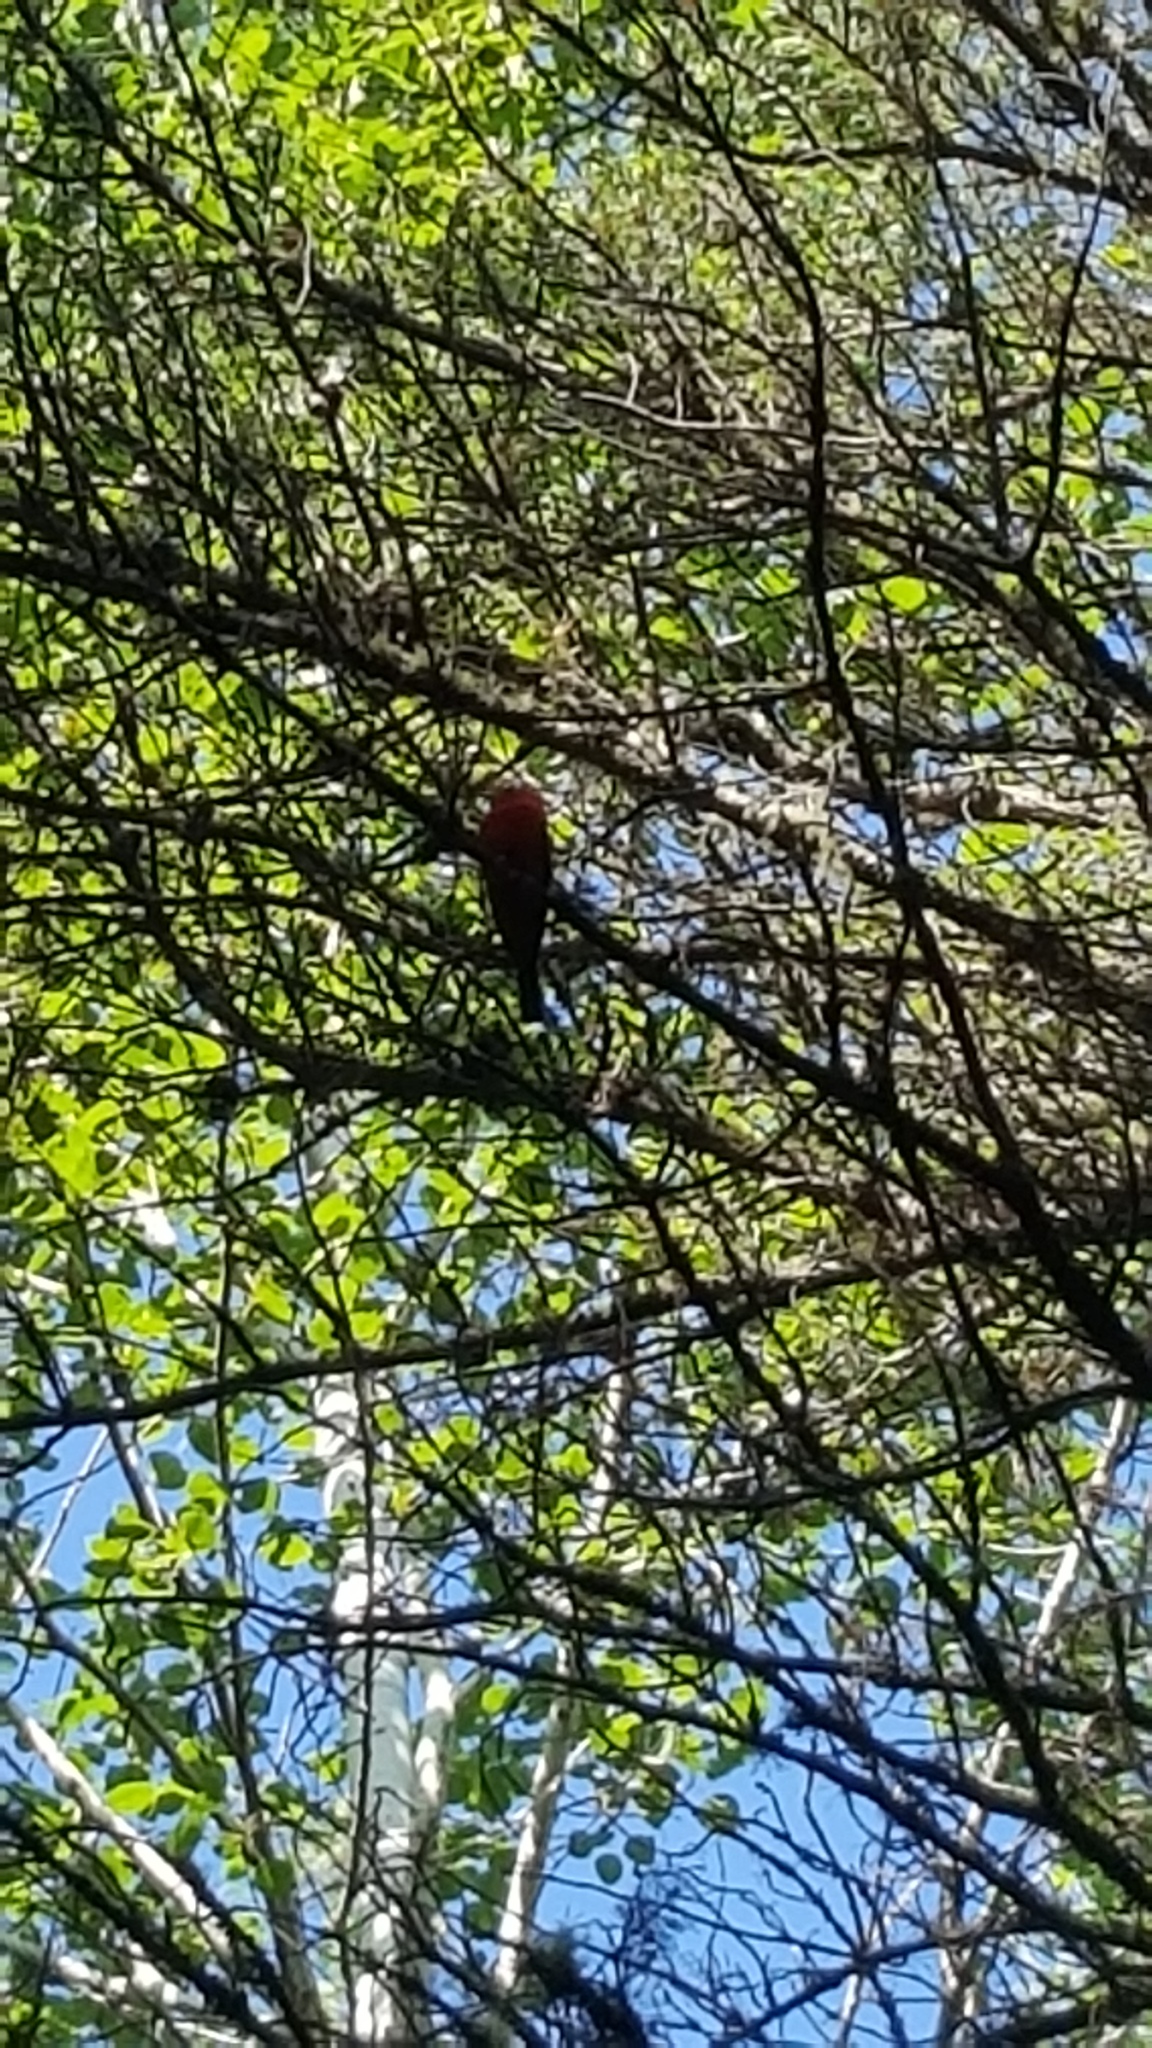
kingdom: Animalia
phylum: Chordata
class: Aves
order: Passeriformes
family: Cardinalidae
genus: Piranga
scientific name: Piranga olivacea
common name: Scarlet tanager
